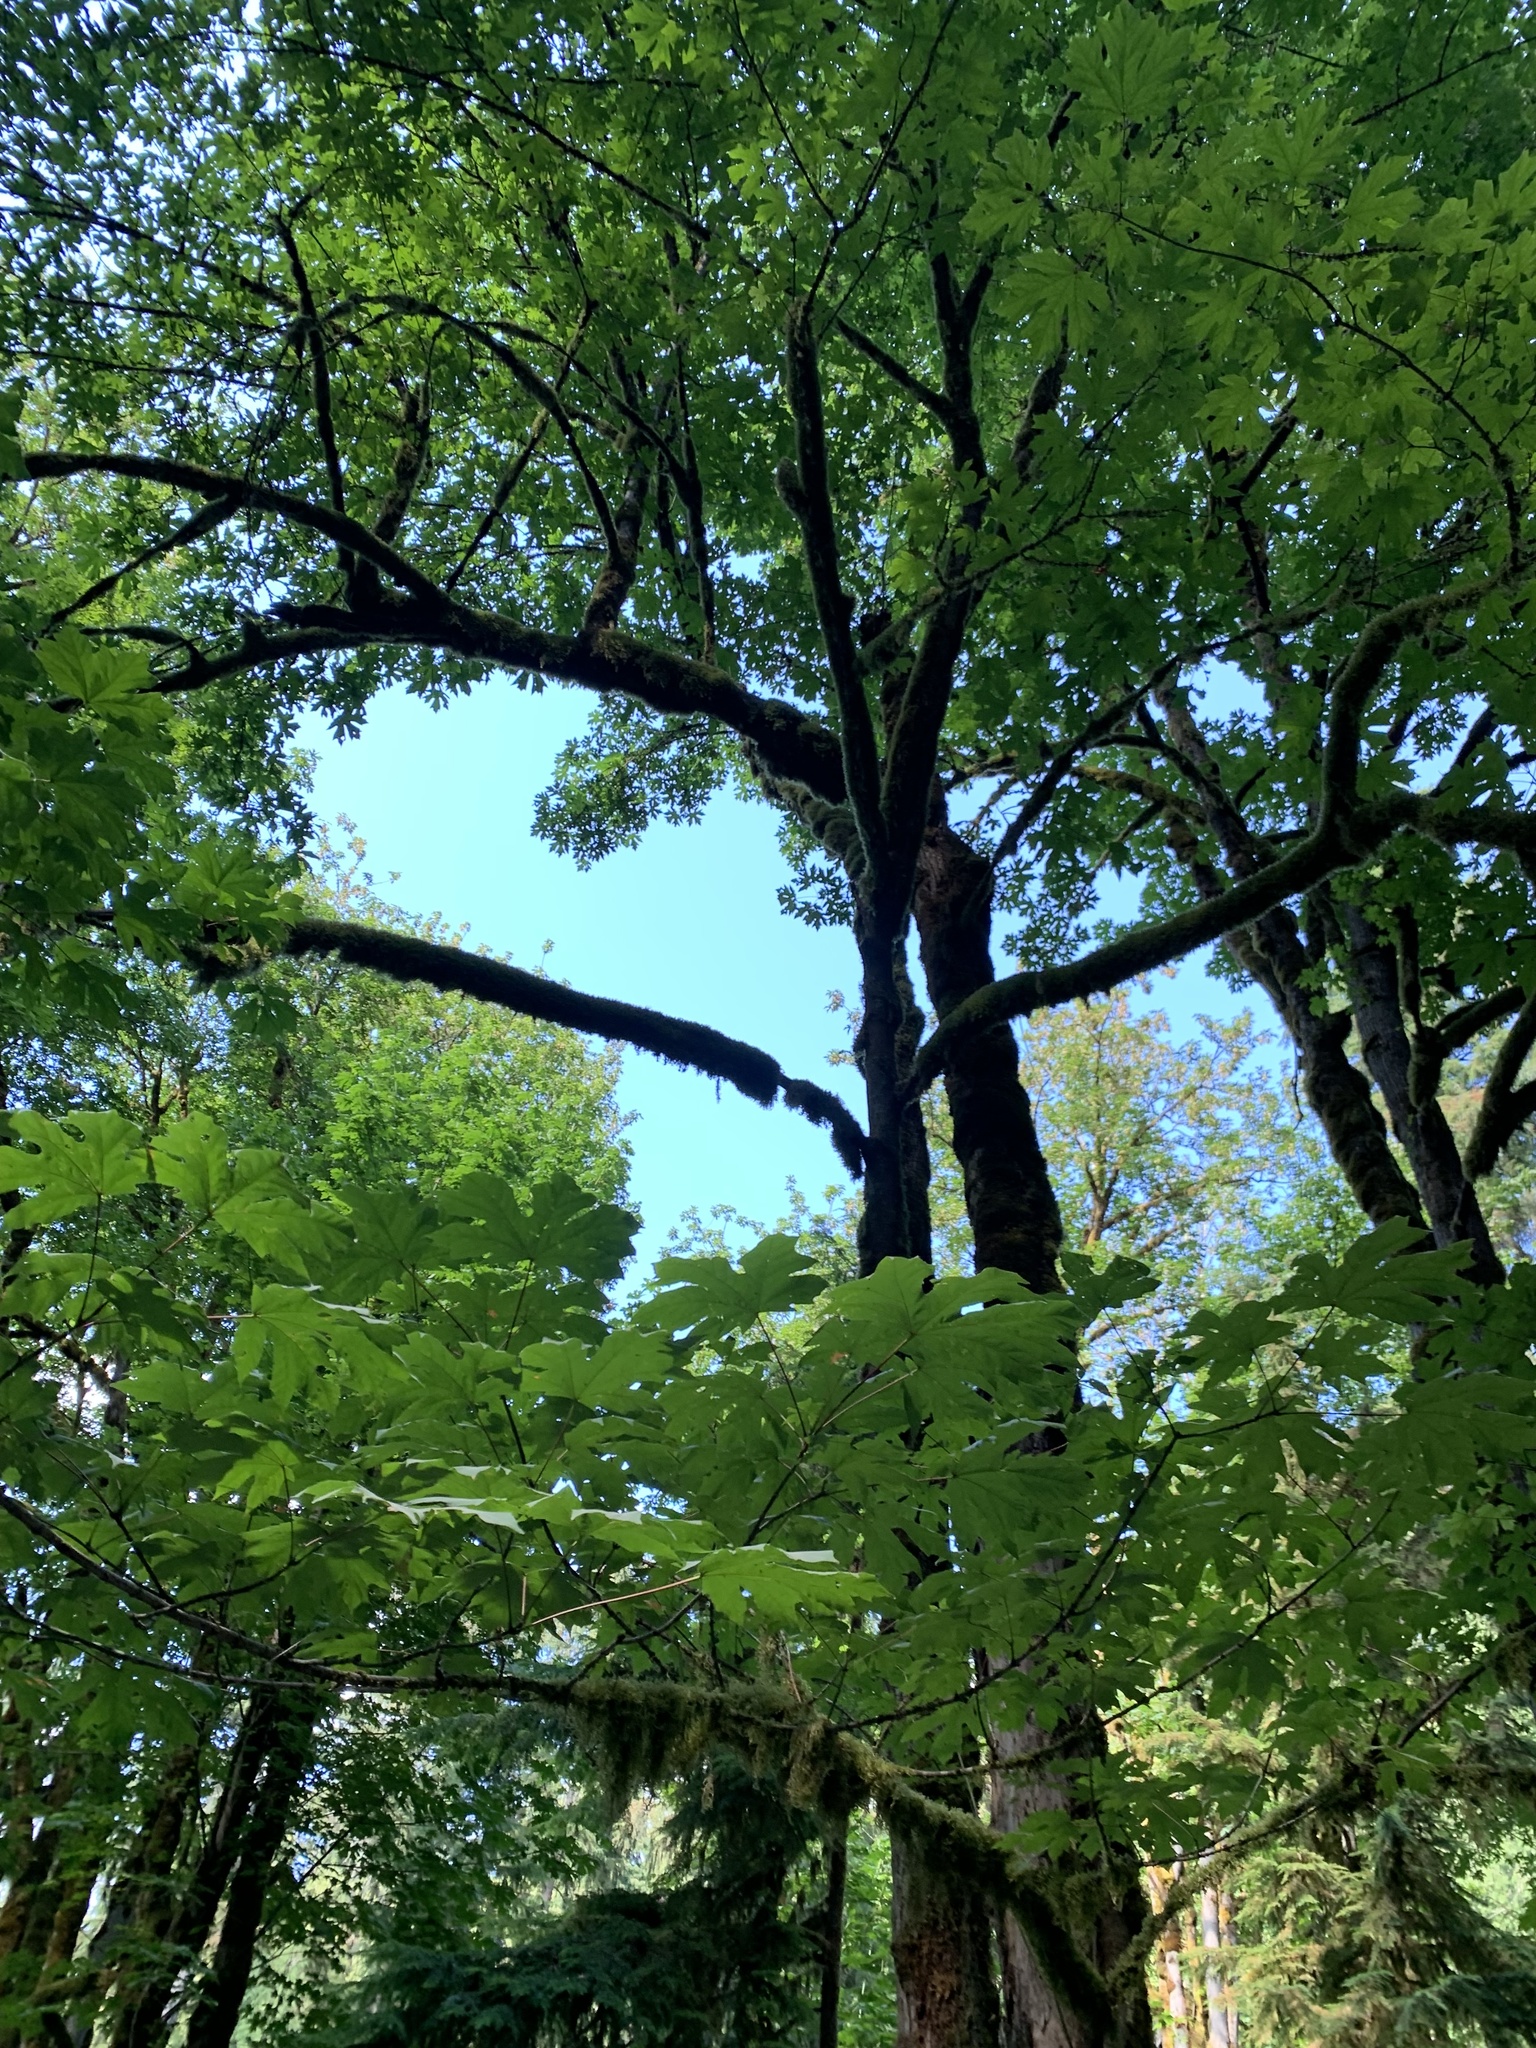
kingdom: Plantae
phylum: Tracheophyta
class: Magnoliopsida
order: Sapindales
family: Sapindaceae
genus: Acer
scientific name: Acer macrophyllum
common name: Oregon maple
